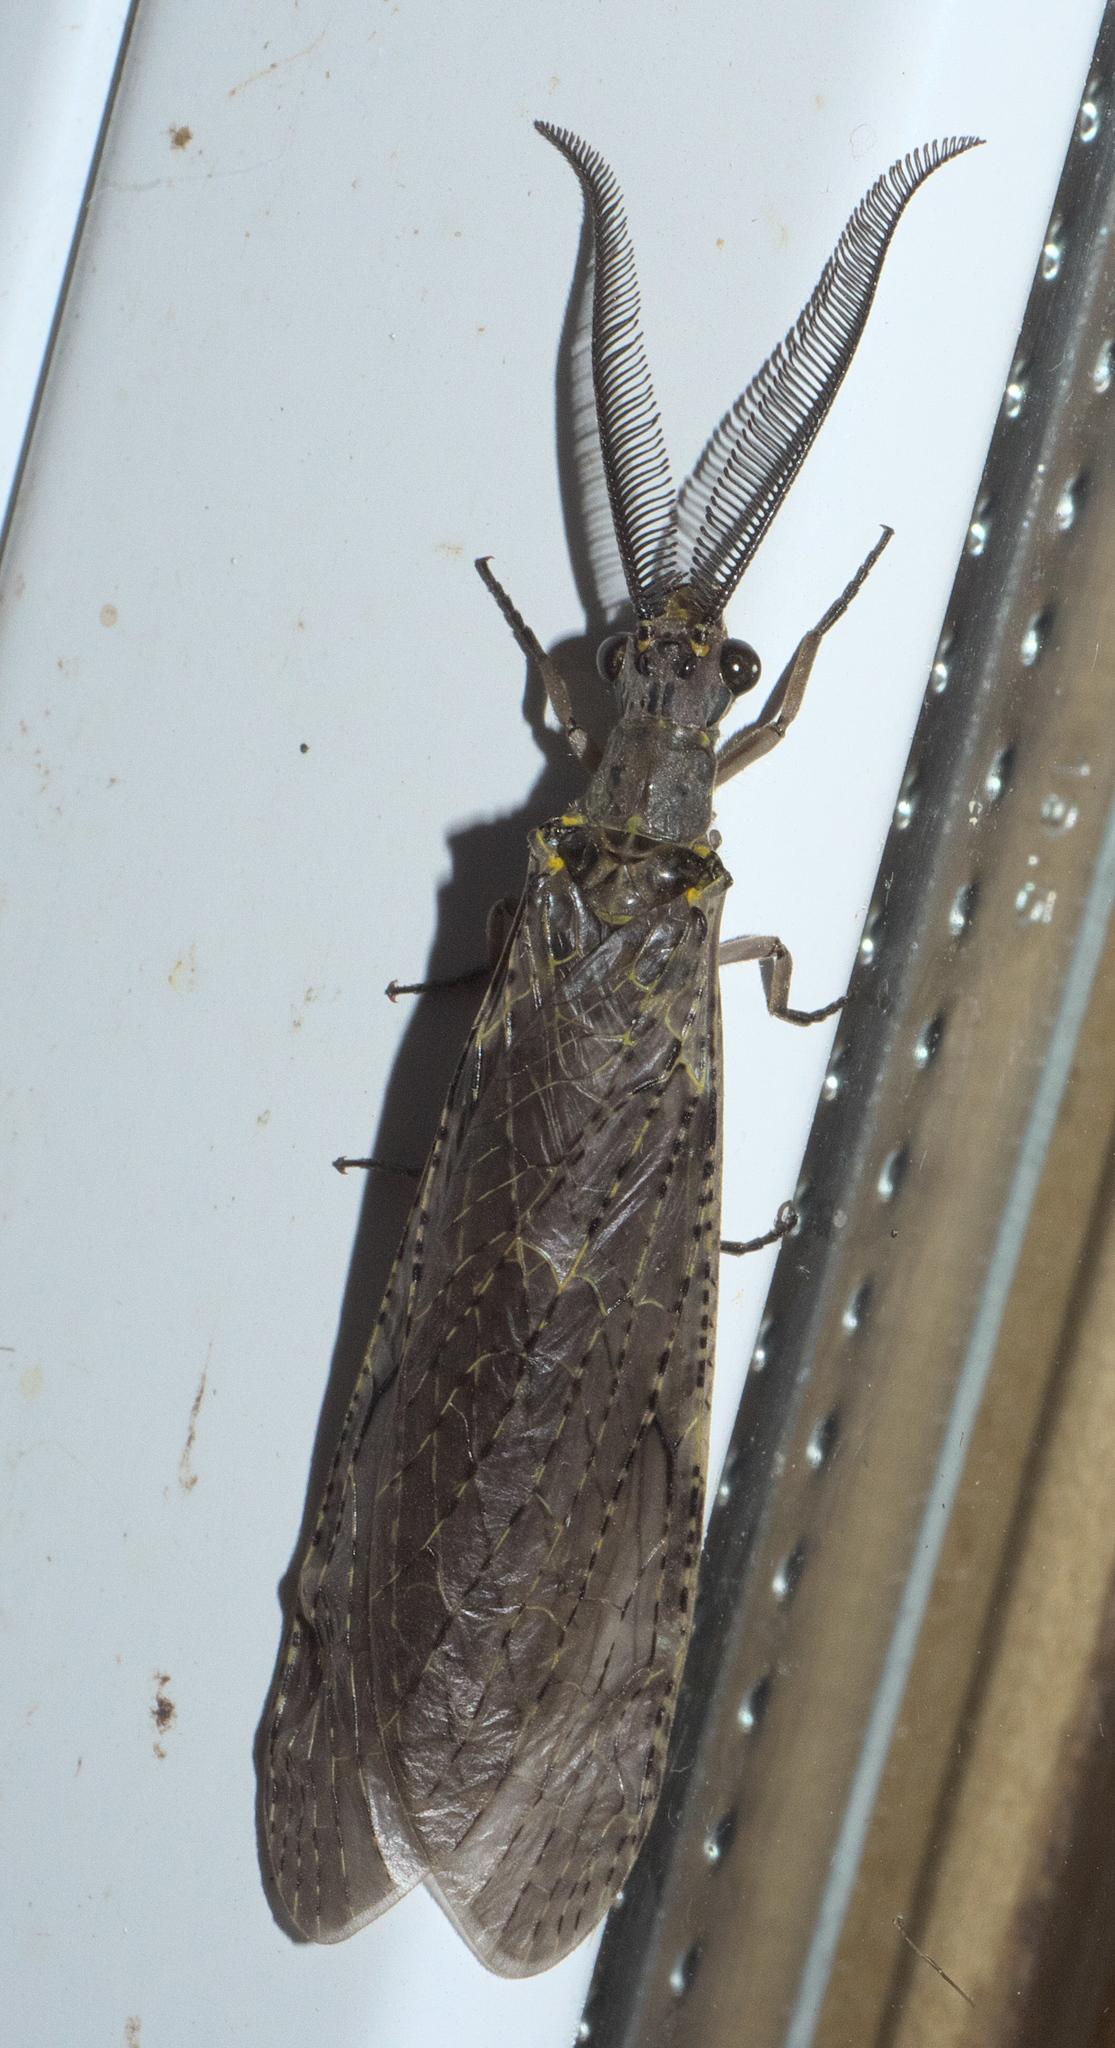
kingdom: Animalia
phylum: Arthropoda
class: Insecta
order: Megaloptera
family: Corydalidae
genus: Chauliodes
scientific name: Chauliodes rastricornis
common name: Spring fishfly
